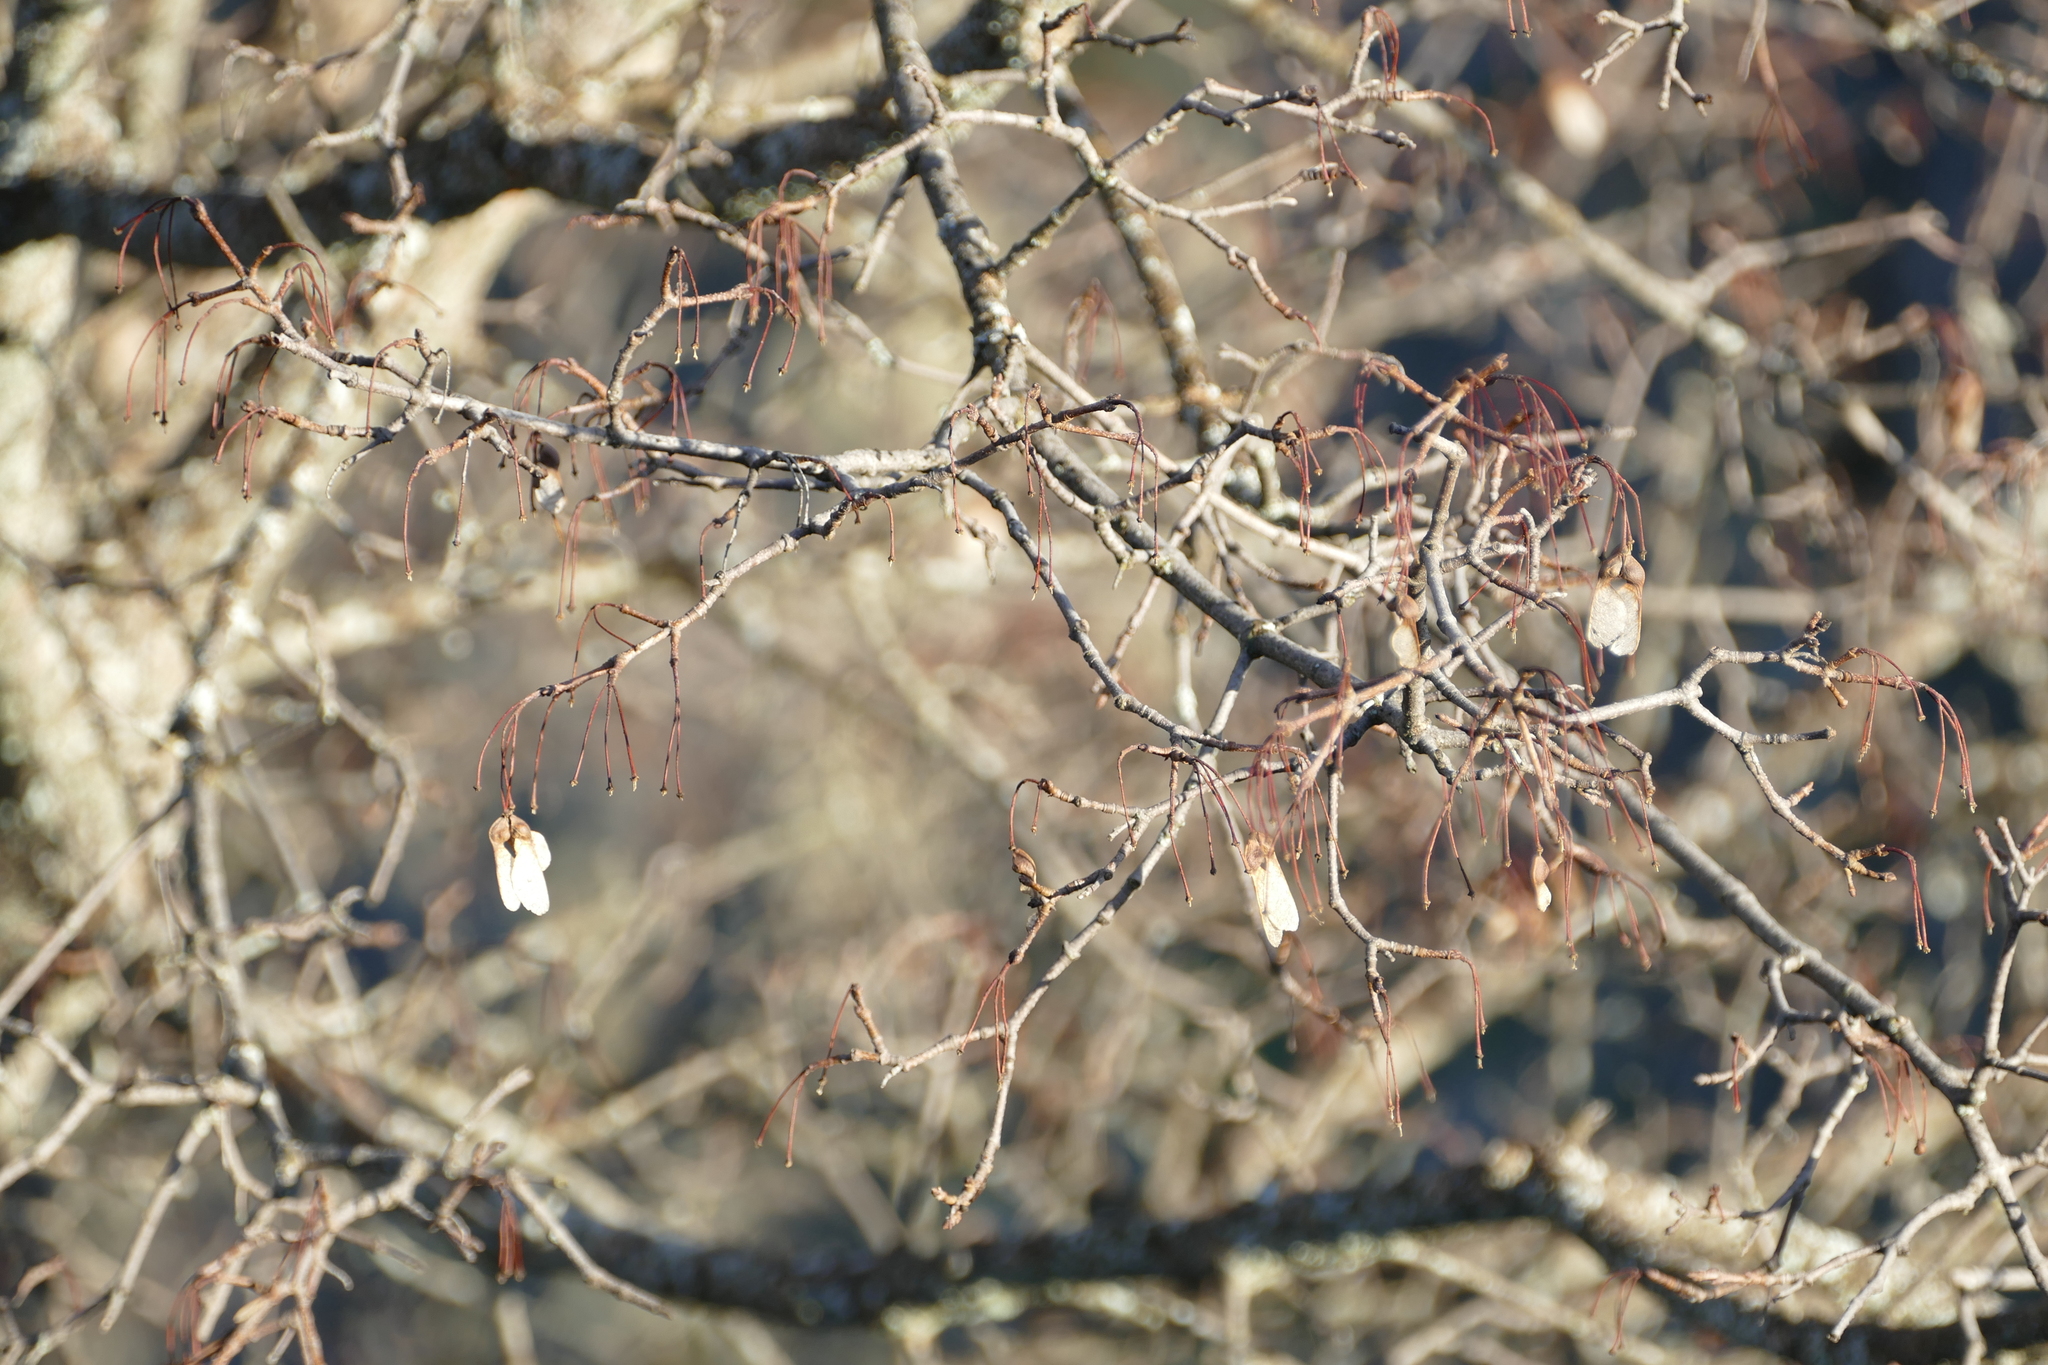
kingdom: Plantae
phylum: Tracheophyta
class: Magnoliopsida
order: Sapindales
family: Sapindaceae
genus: Acer
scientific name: Acer monspessulanum
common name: Montpellier maple
